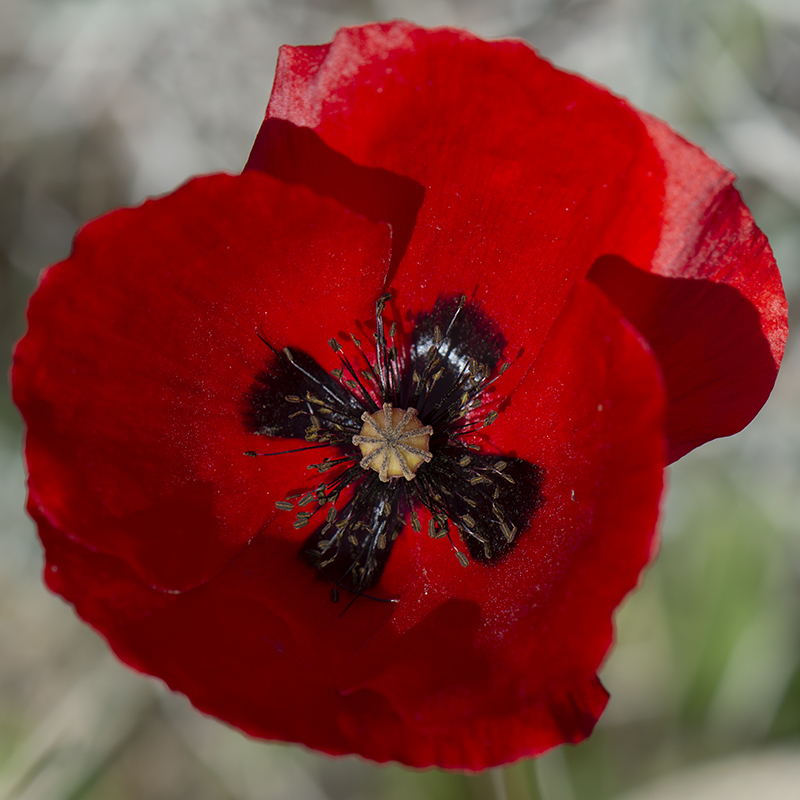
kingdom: Plantae
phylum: Tracheophyta
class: Magnoliopsida
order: Ranunculales
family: Papaveraceae
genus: Papaver
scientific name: Papaver rhoeas
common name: Corn poppy
